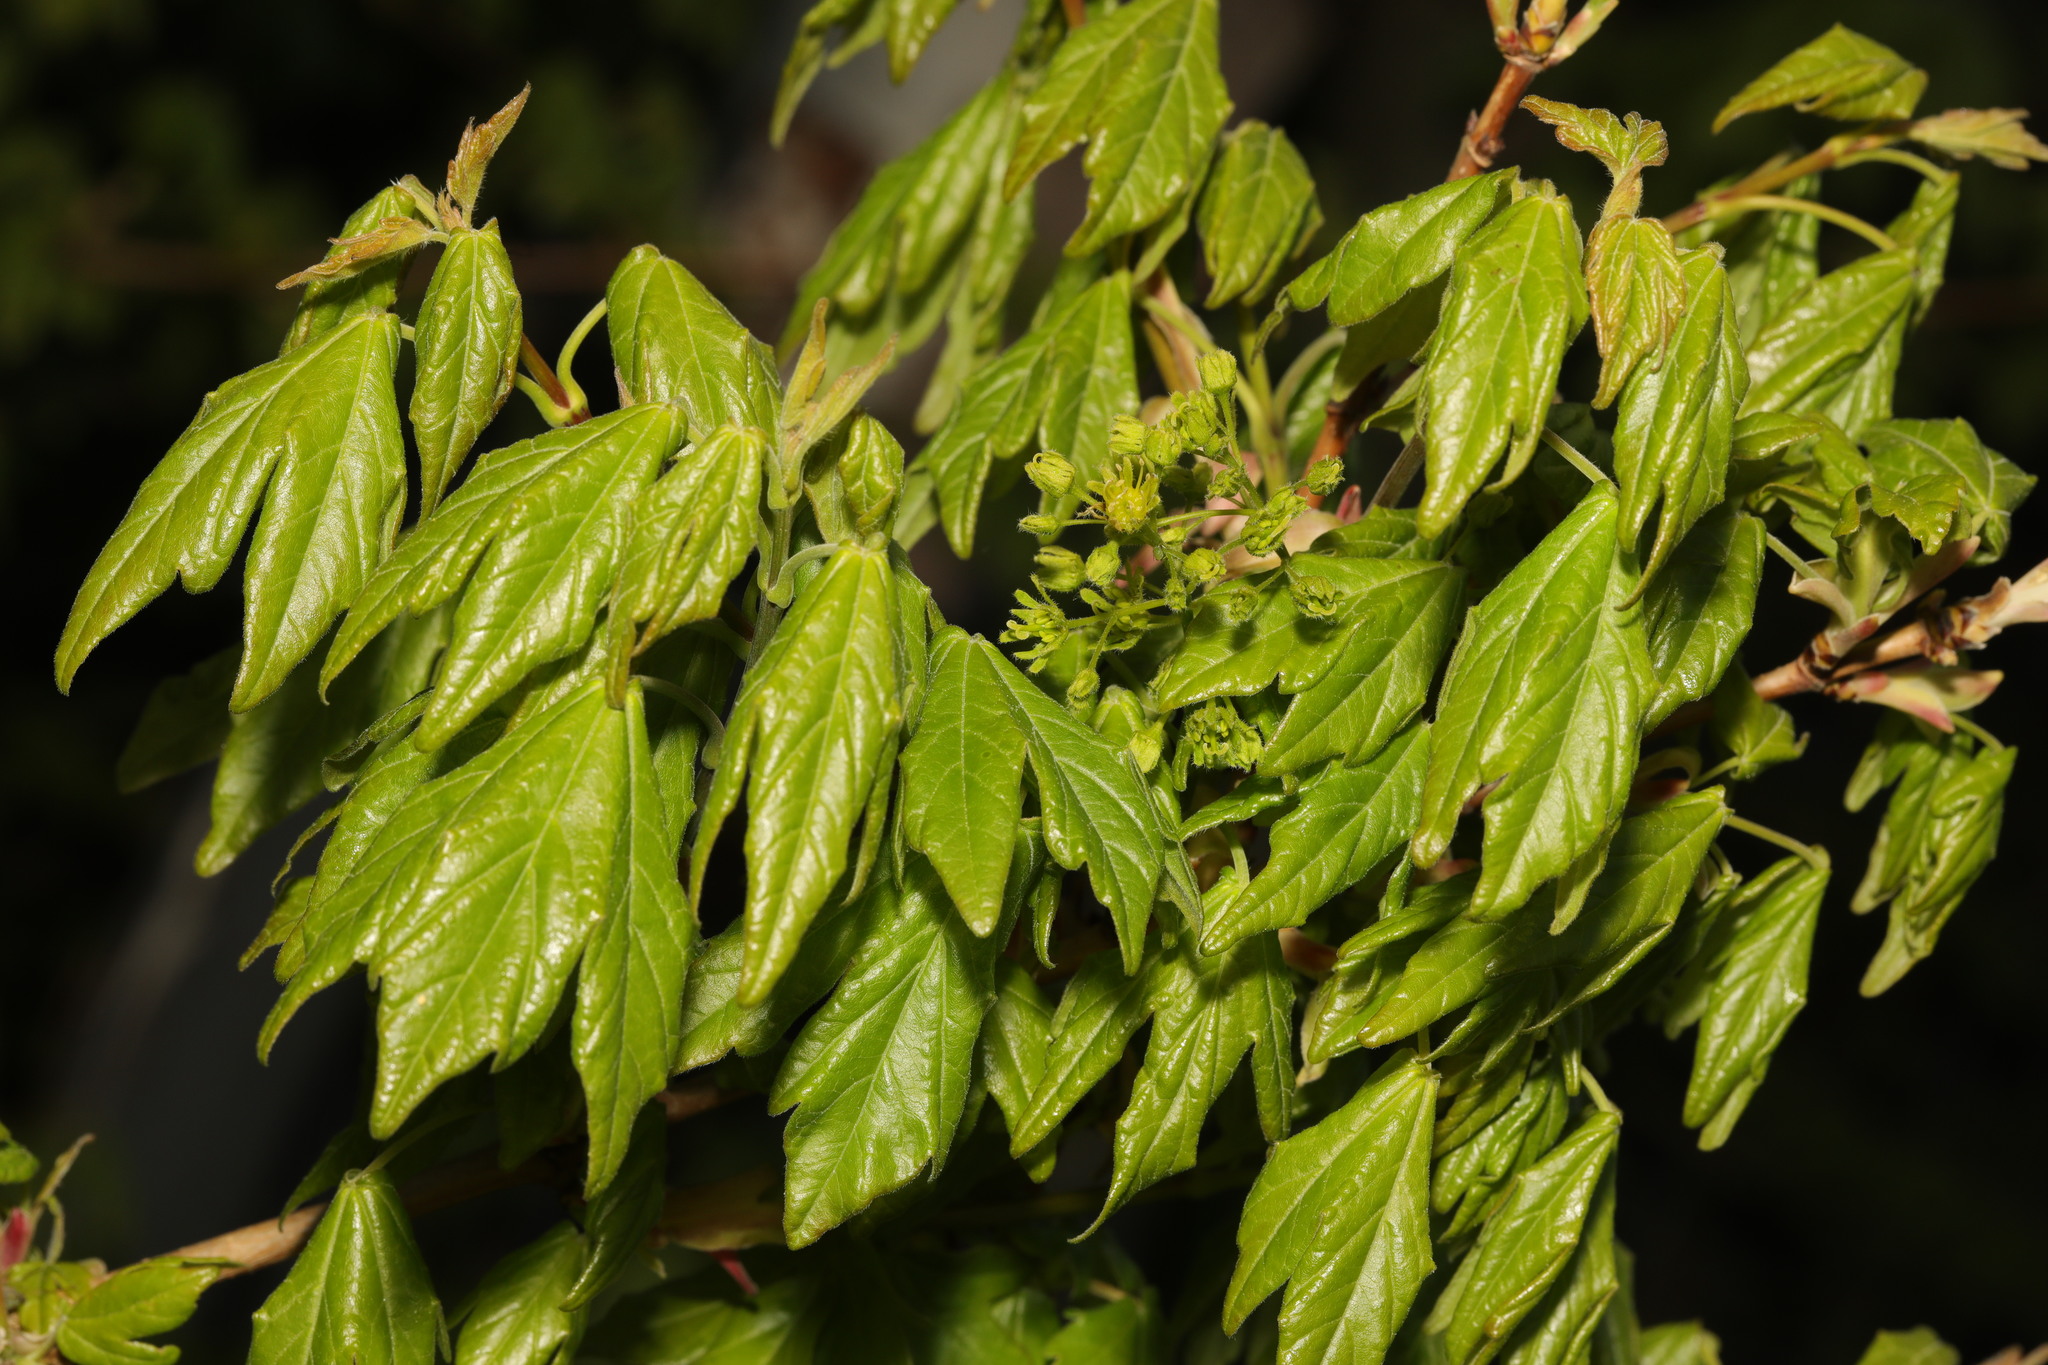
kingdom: Plantae
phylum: Tracheophyta
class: Magnoliopsida
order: Sapindales
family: Sapindaceae
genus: Acer
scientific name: Acer campestre
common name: Field maple
